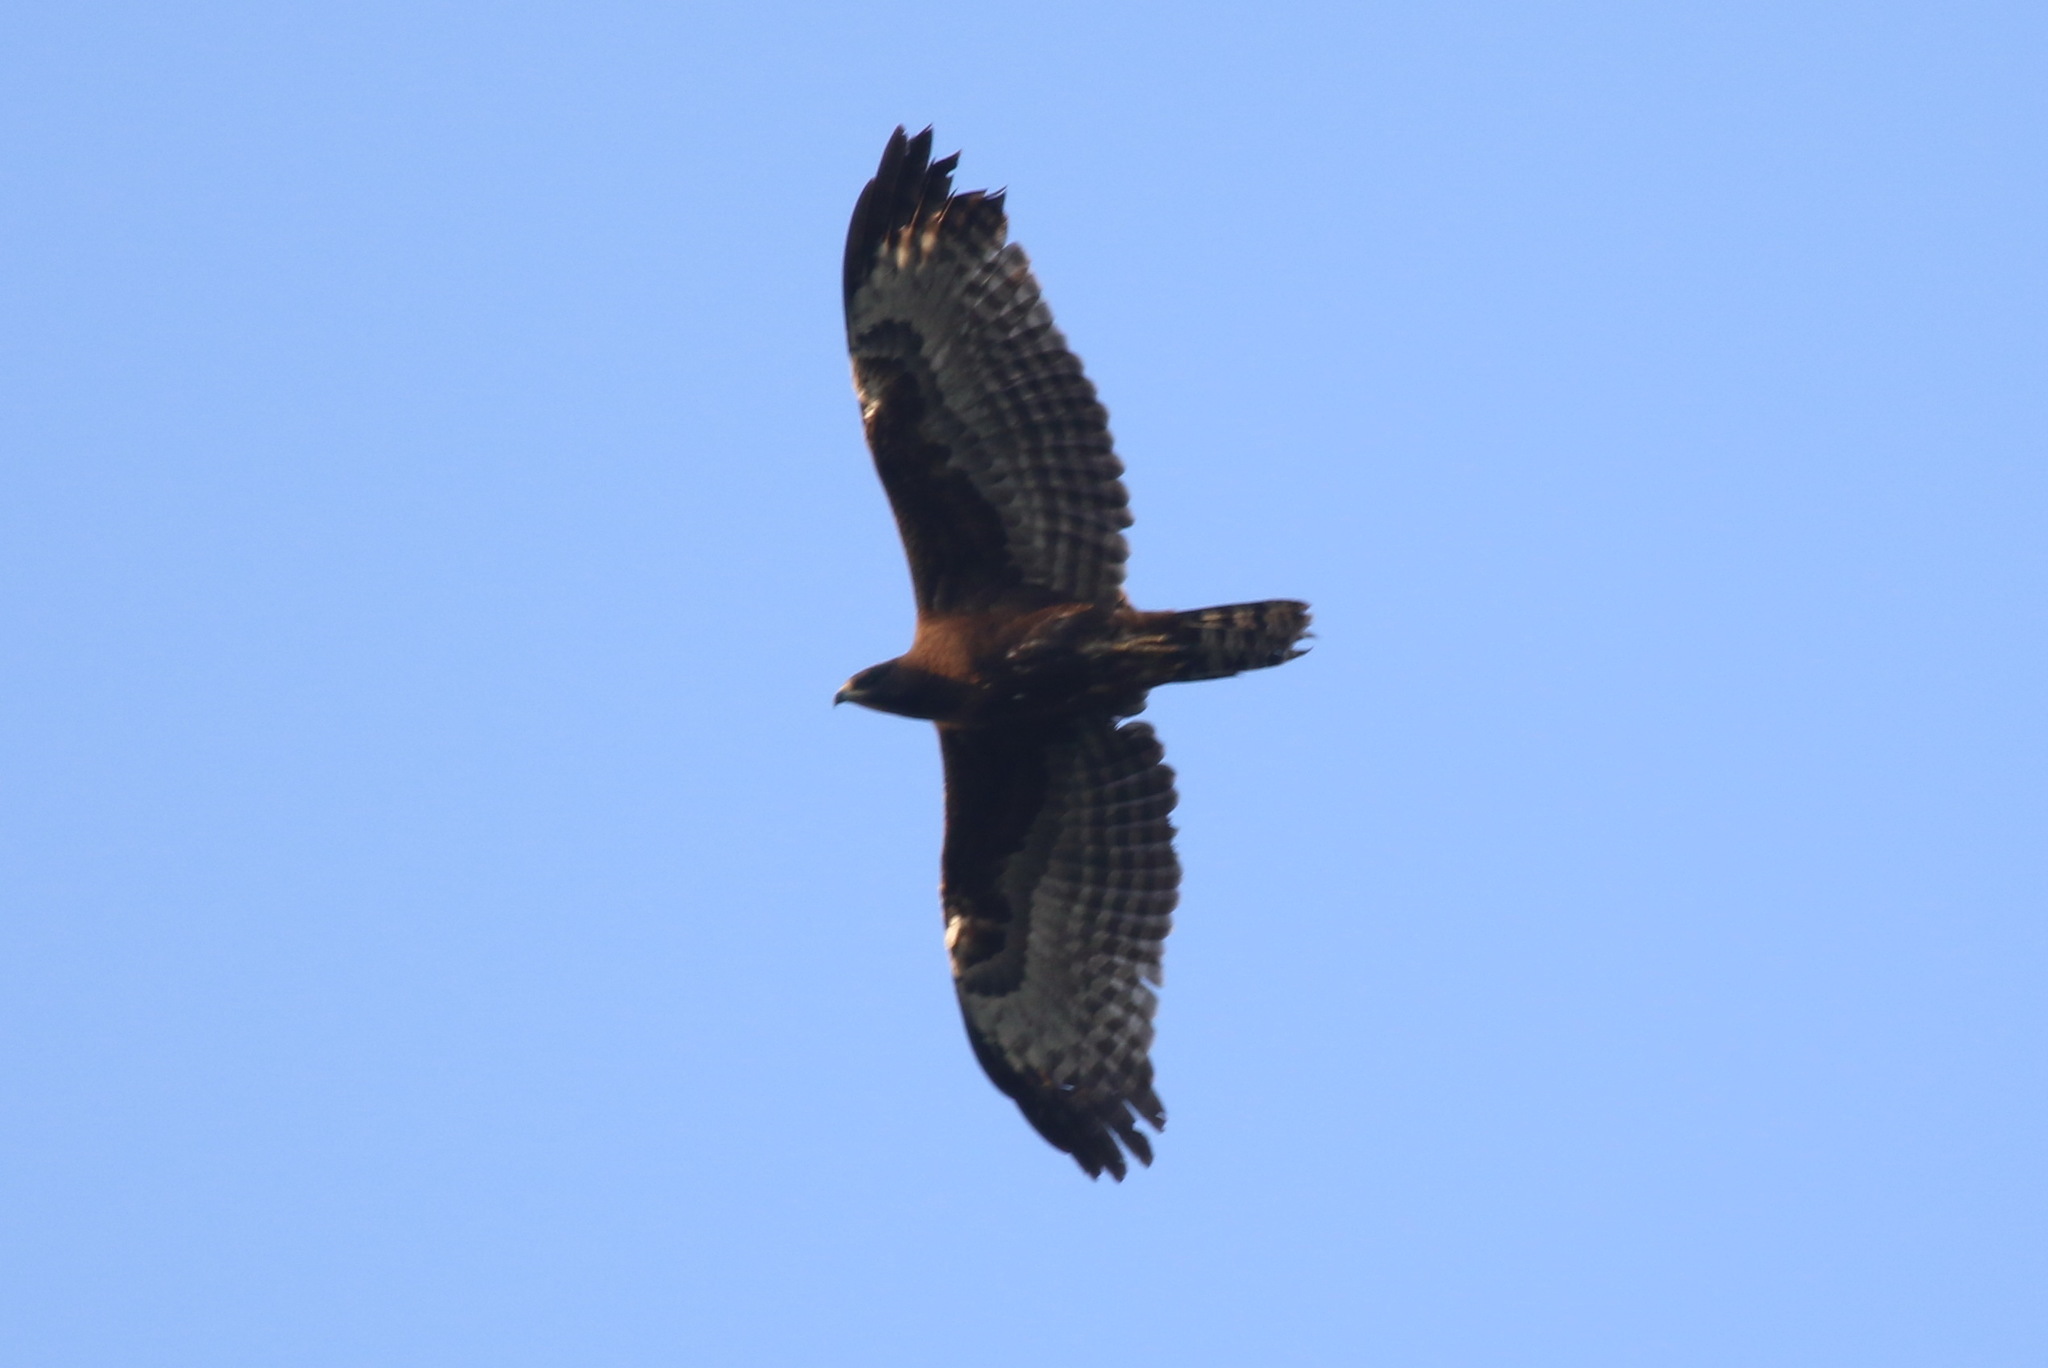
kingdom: Animalia
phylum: Chordata
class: Aves
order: Accipitriformes
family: Accipitridae
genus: Pernis
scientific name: Pernis ptilorhynchus
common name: Crested honey buzzard
